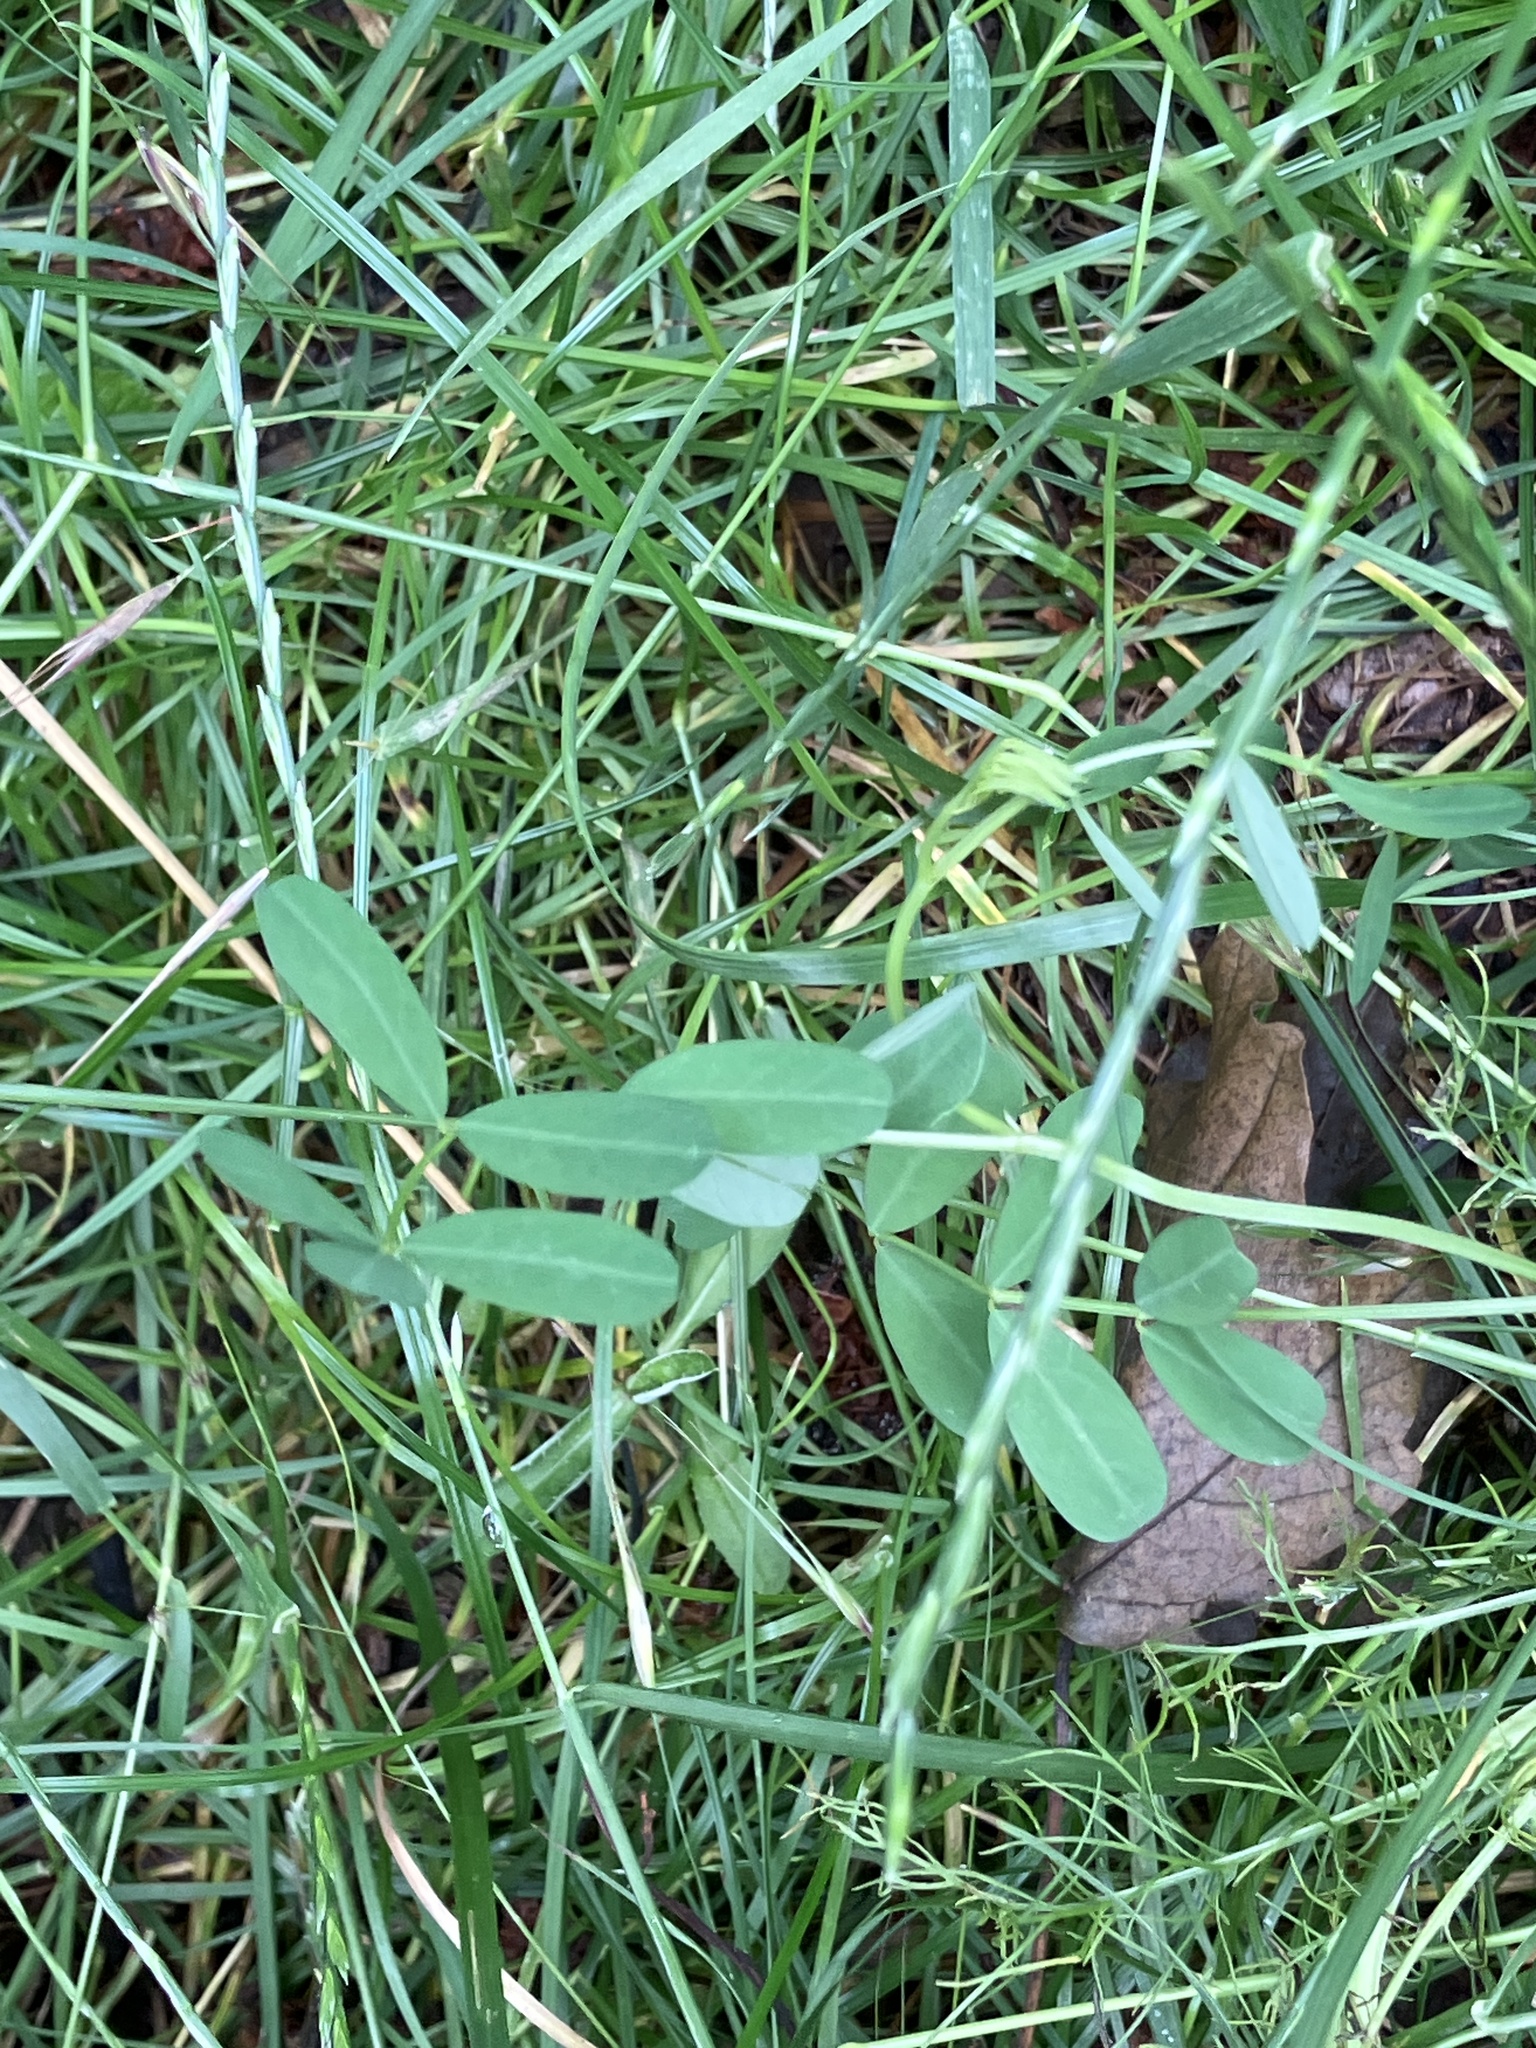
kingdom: Plantae
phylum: Tracheophyta
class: Magnoliopsida
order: Fabales
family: Fabaceae
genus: Coronilla
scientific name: Coronilla varia
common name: Crownvetch
